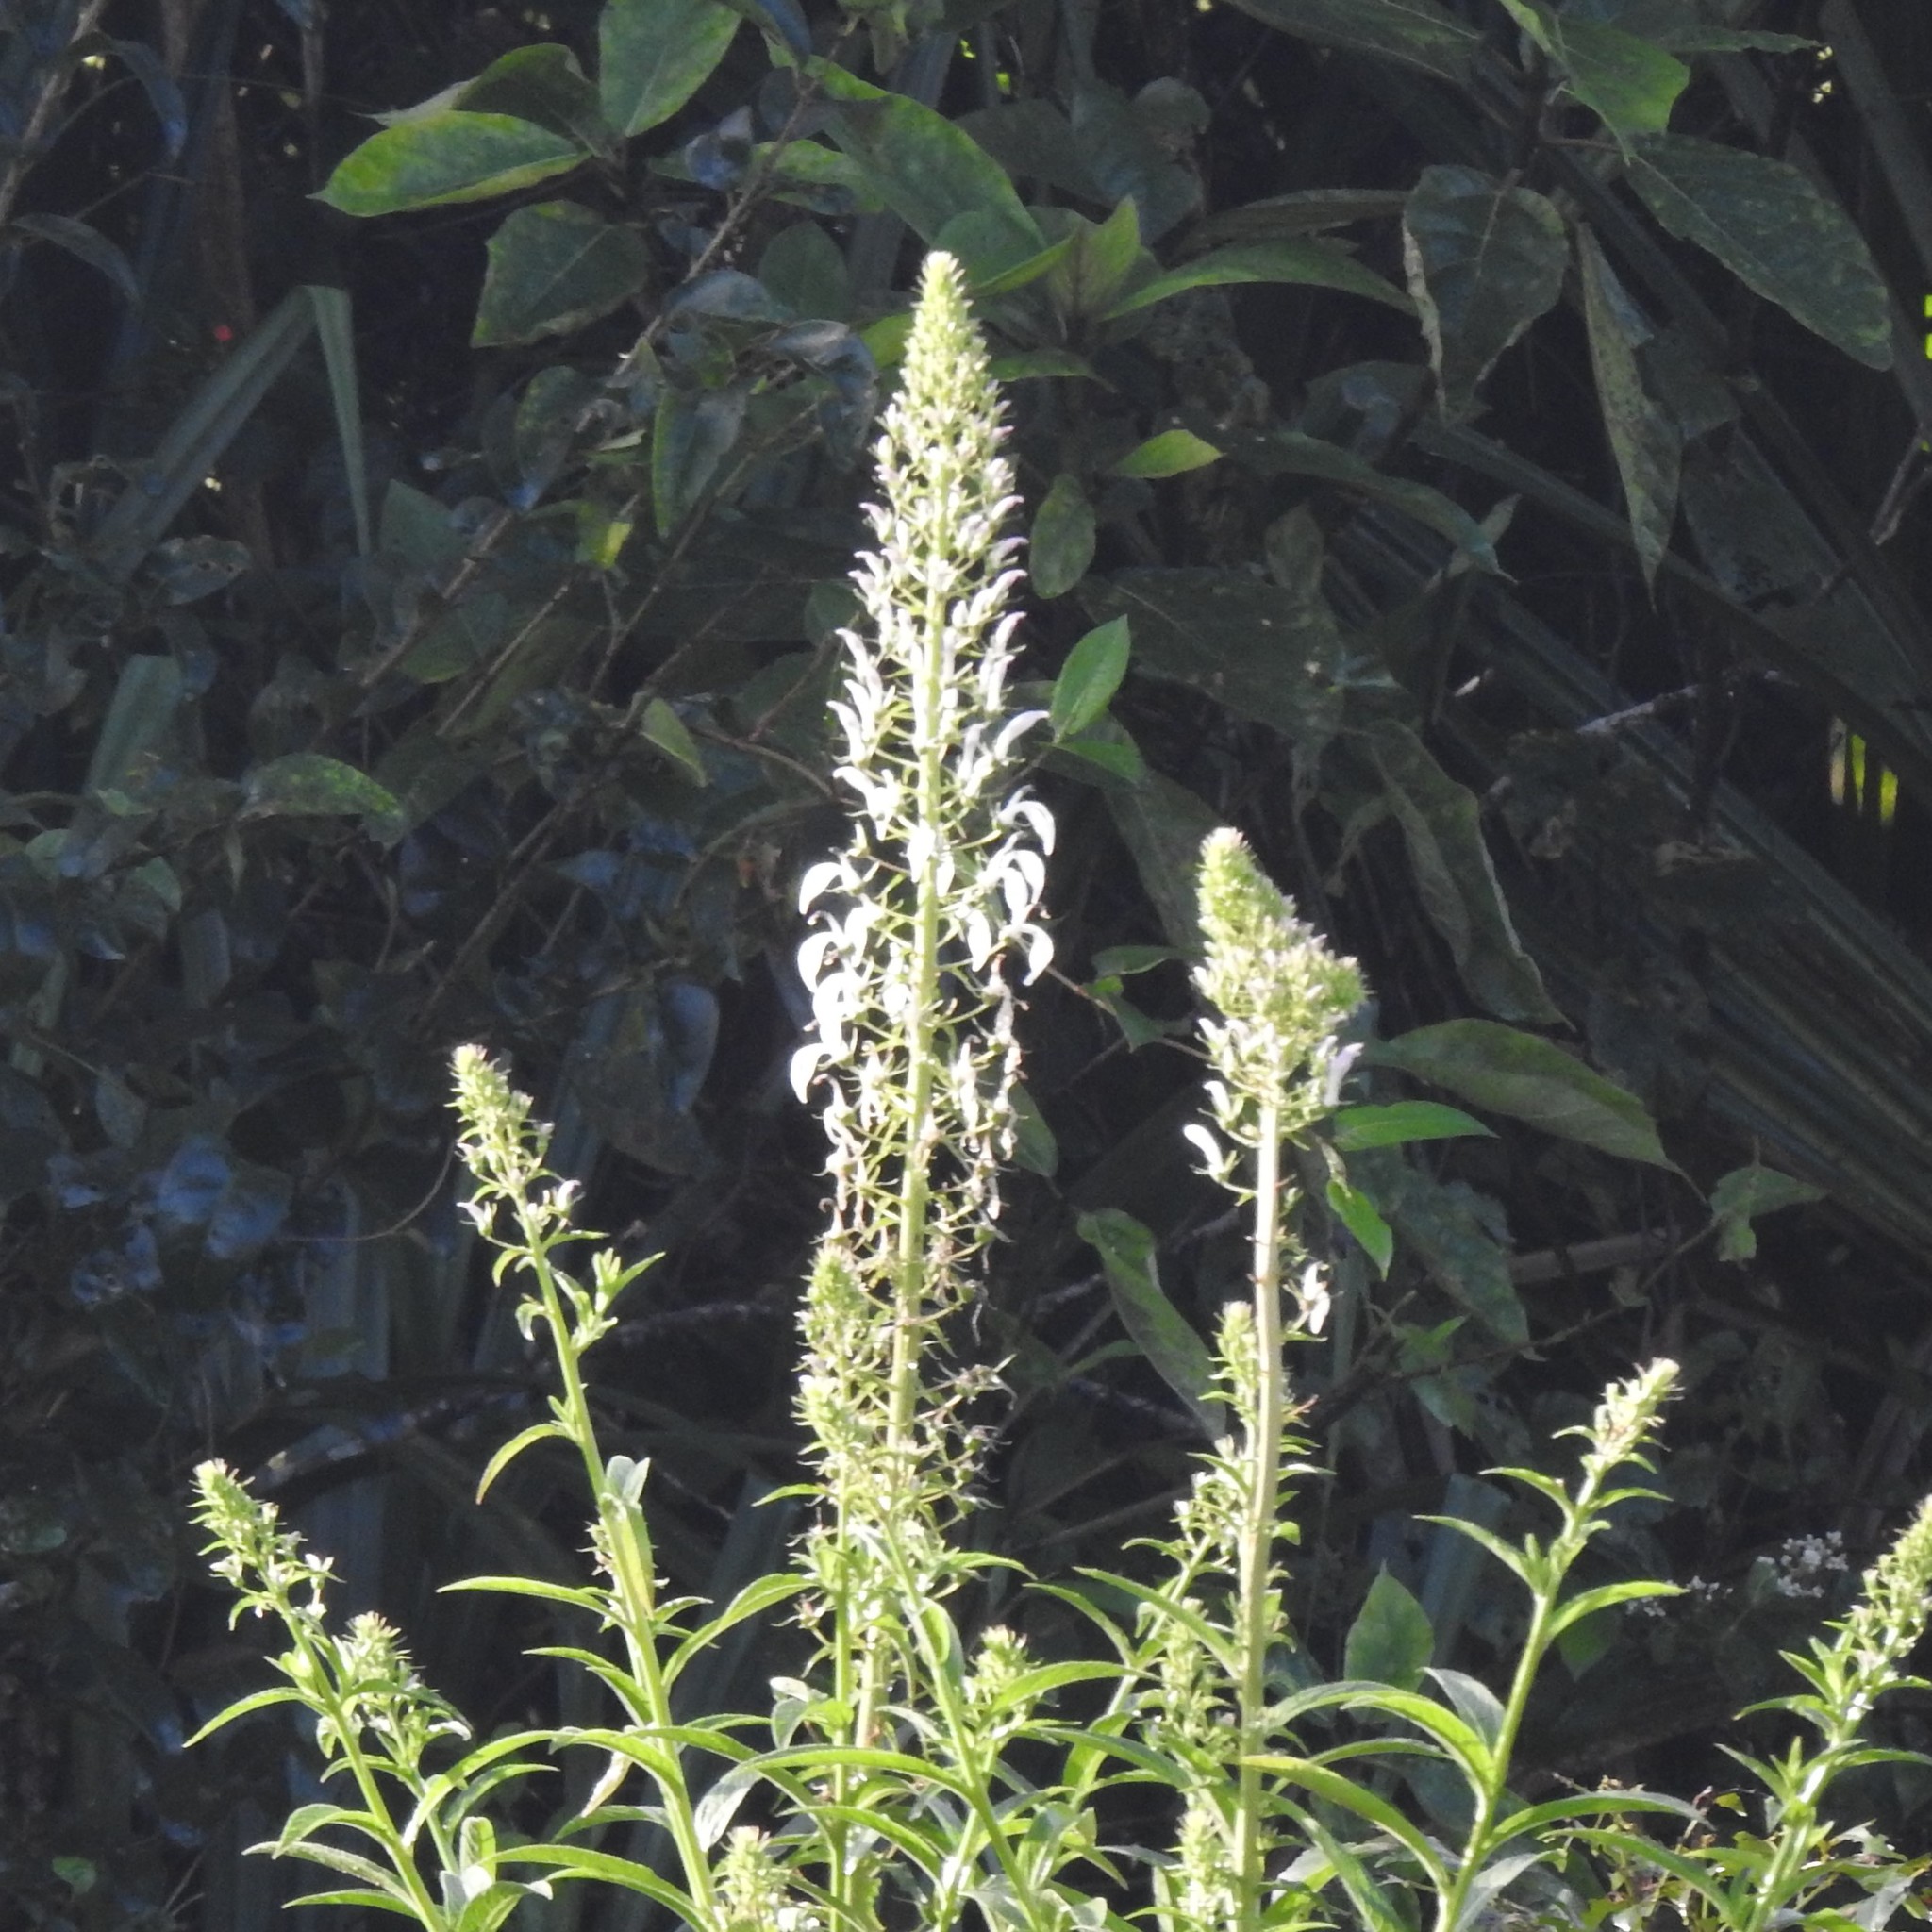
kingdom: Plantae
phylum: Tracheophyta
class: Magnoliopsida
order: Asterales
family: Campanulaceae
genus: Lobelia
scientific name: Lobelia nicotianifolia
